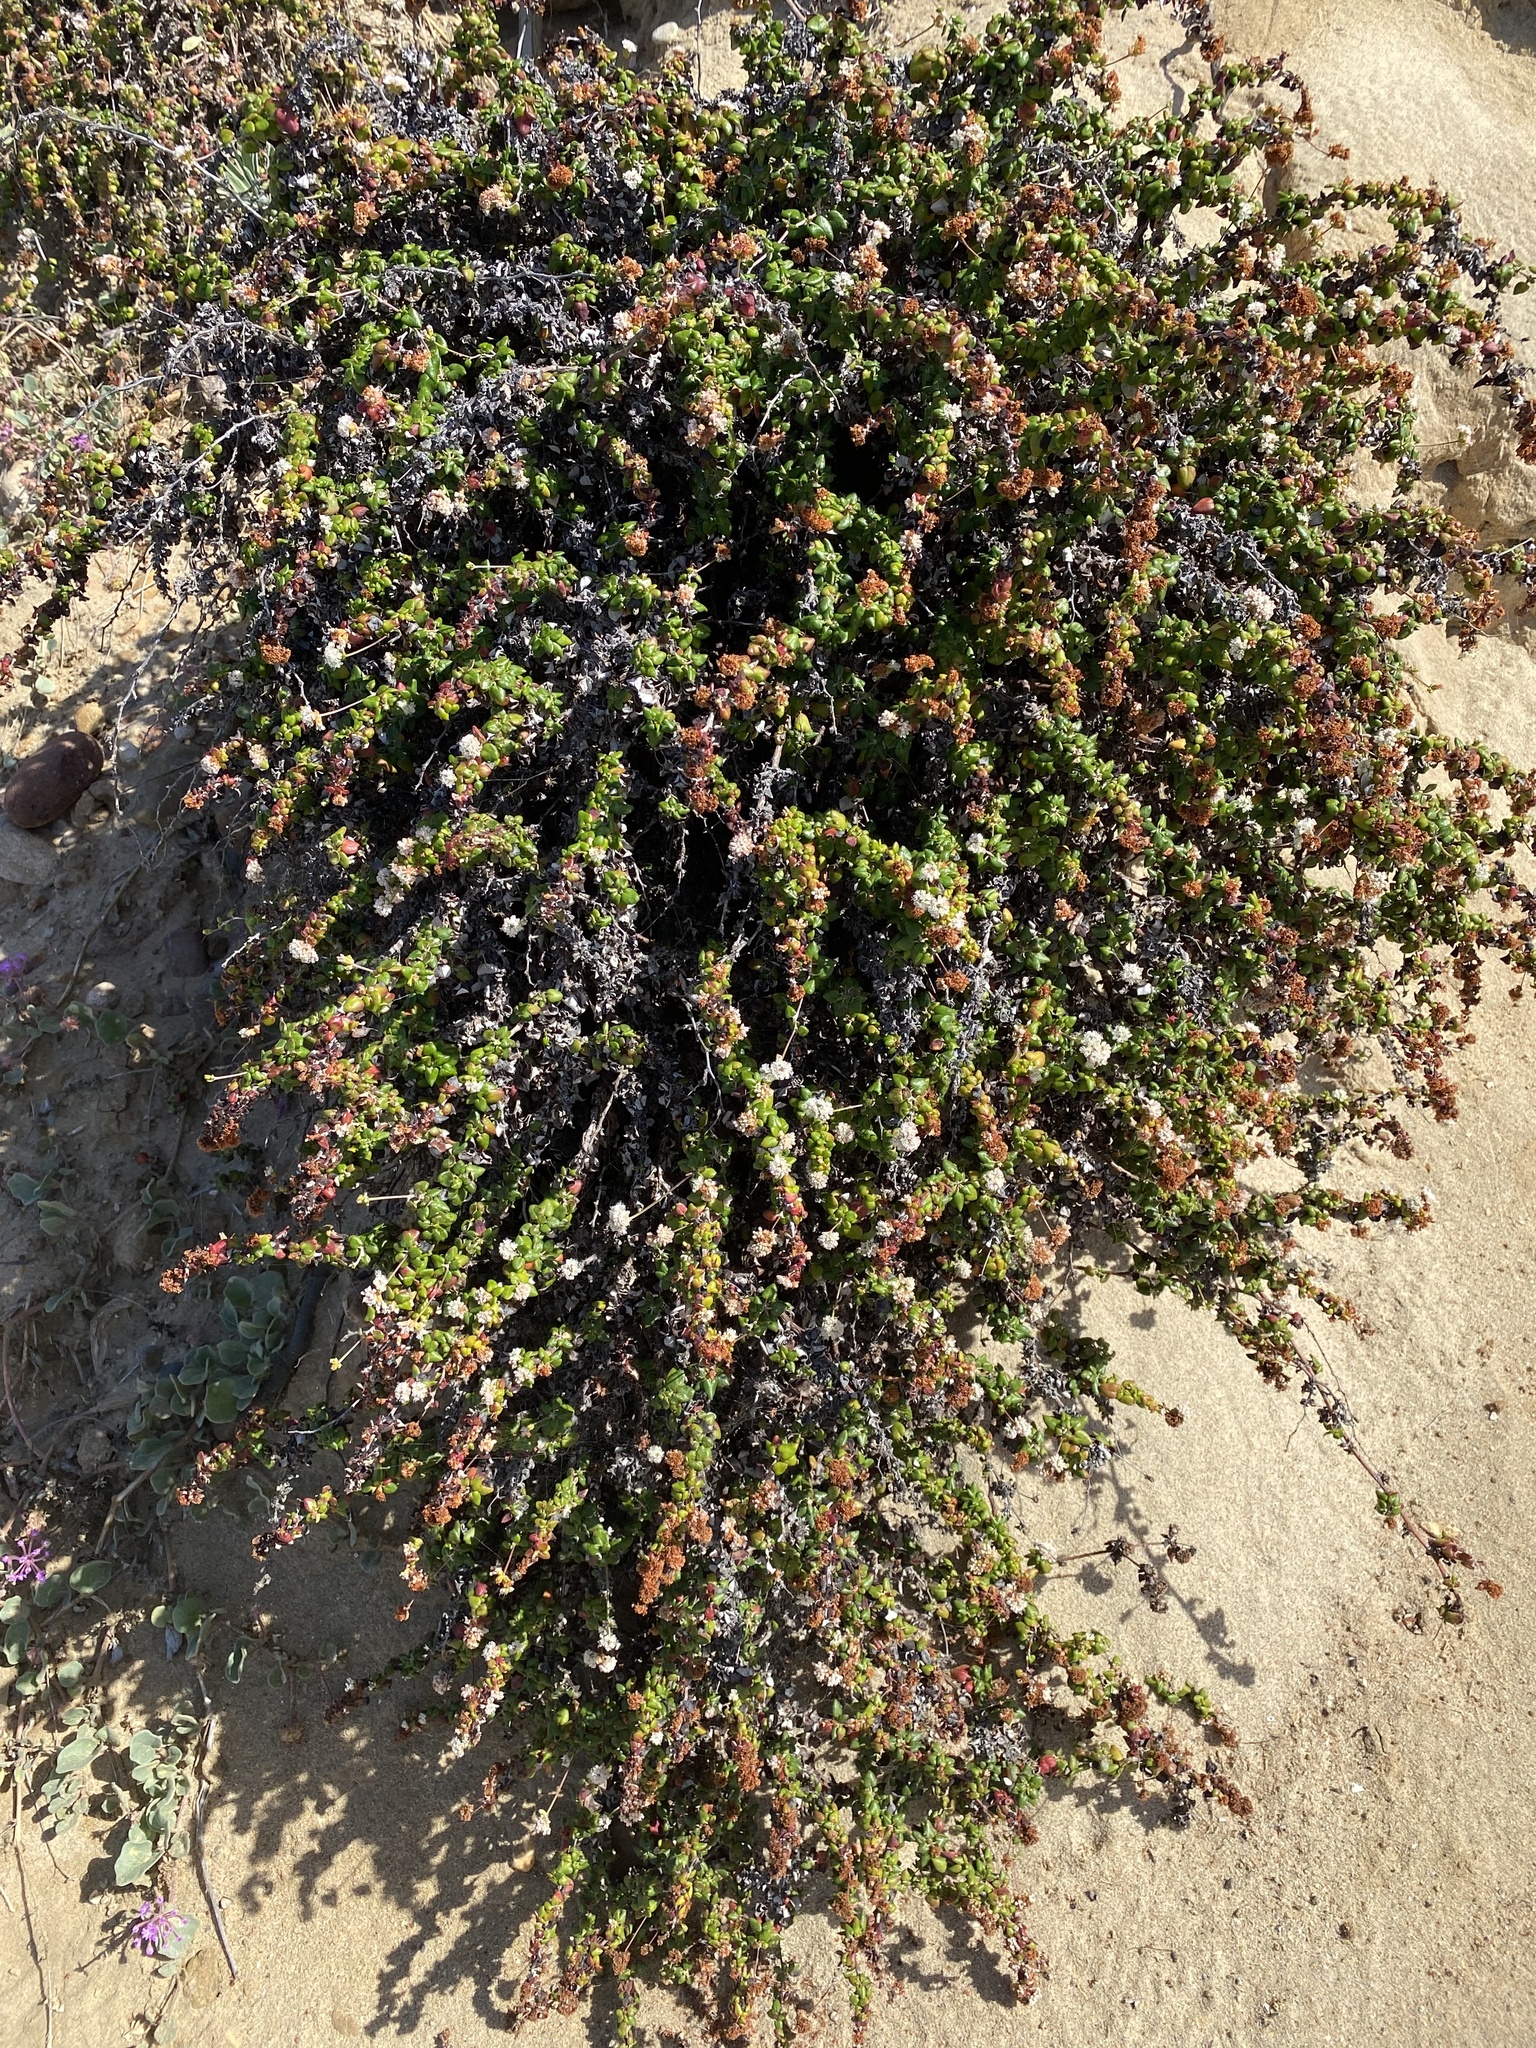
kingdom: Plantae
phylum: Tracheophyta
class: Magnoliopsida
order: Caryophyllales
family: Polygonaceae
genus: Eriogonum
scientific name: Eriogonum parvifolium
